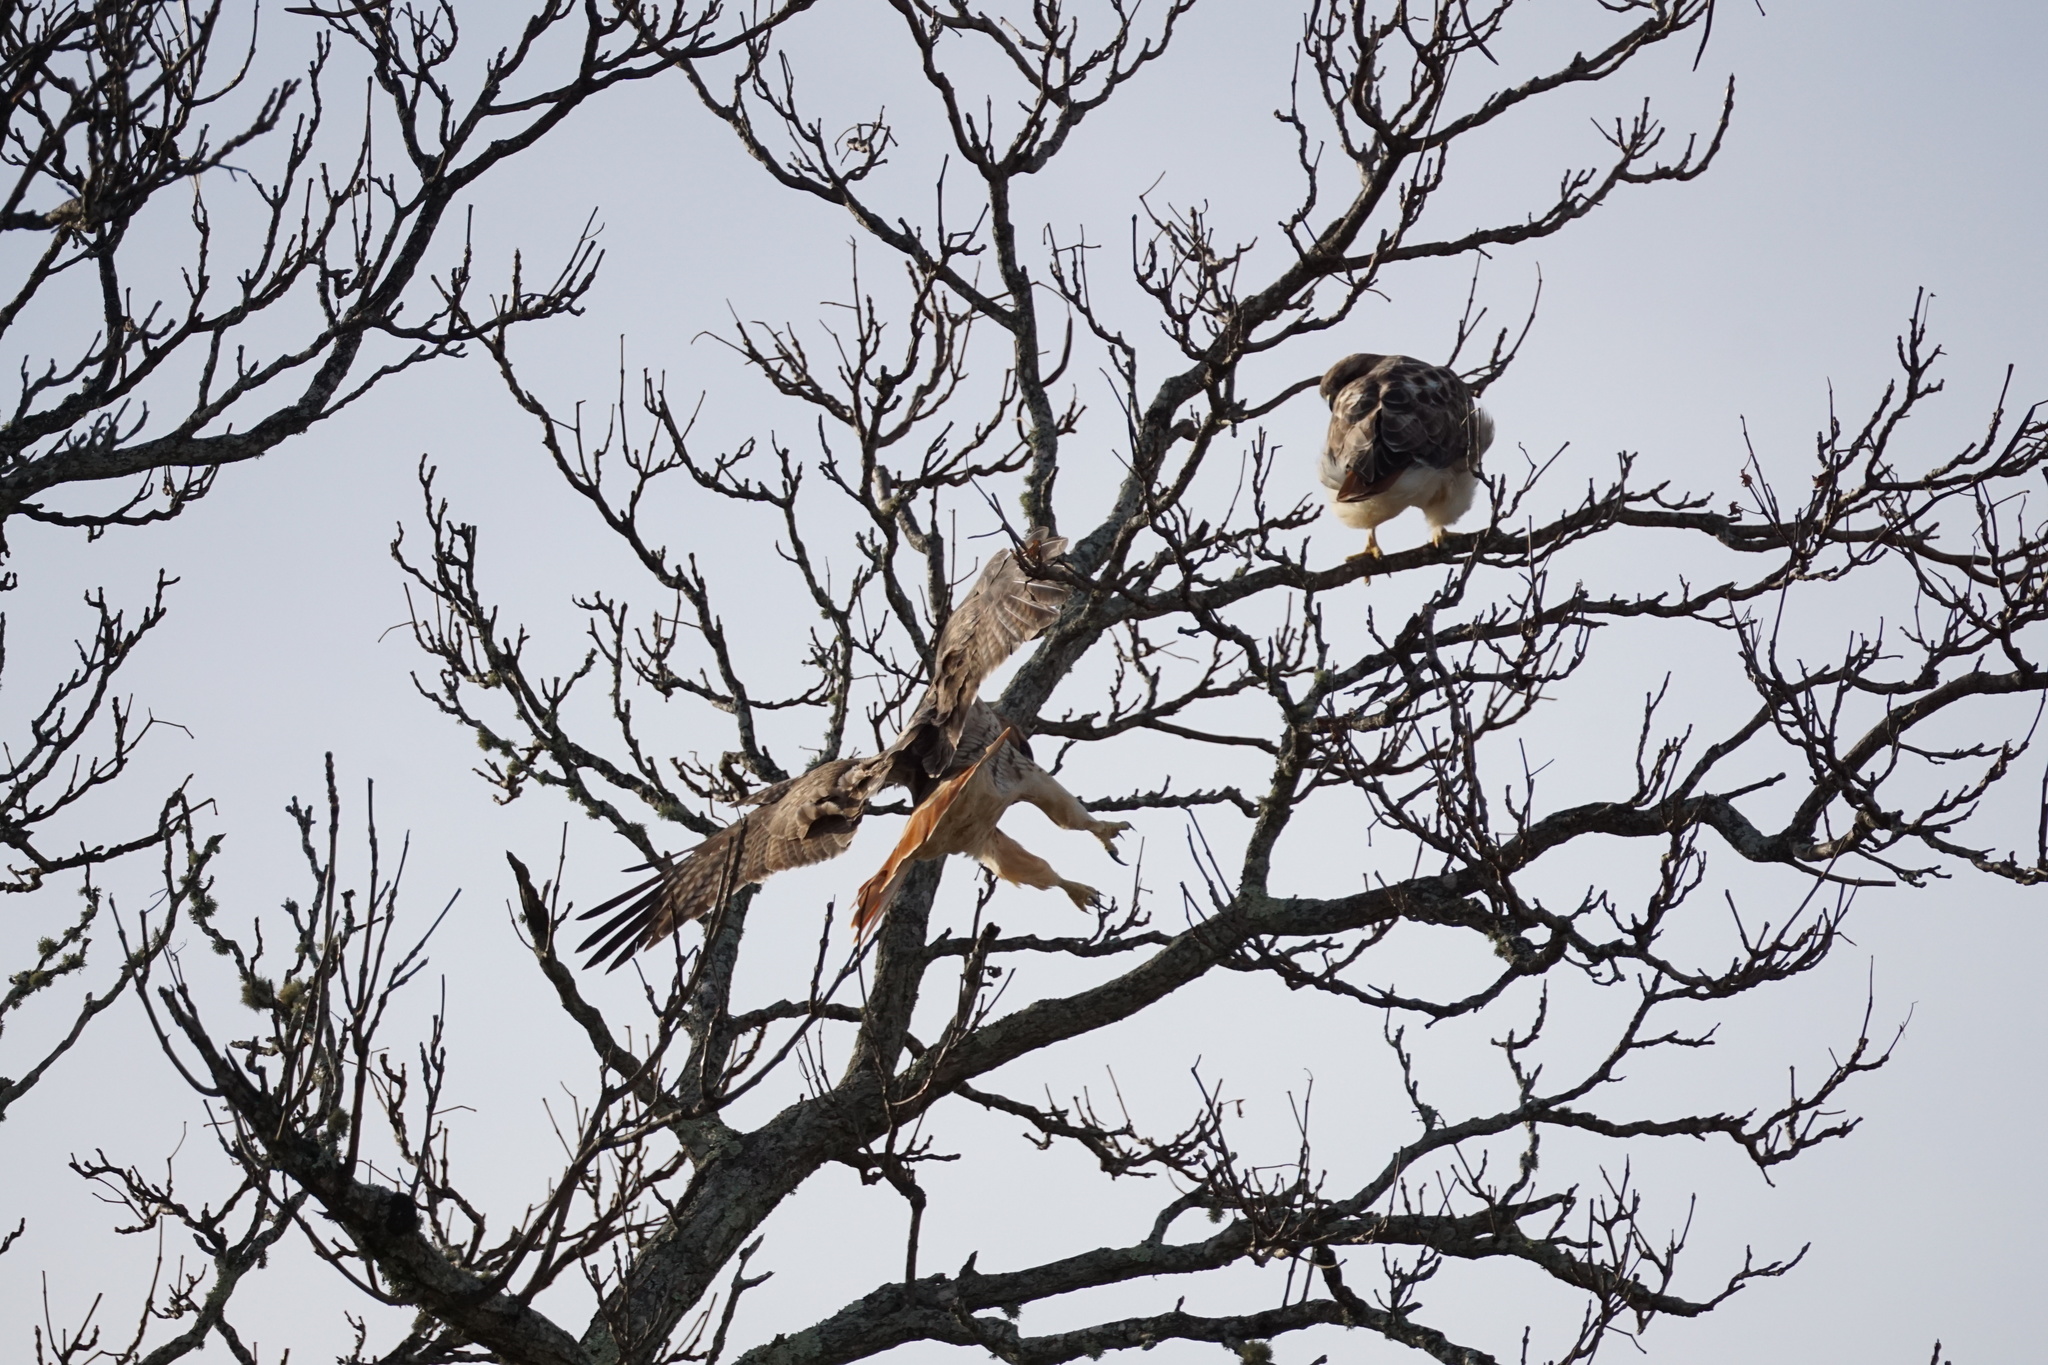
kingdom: Animalia
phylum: Chordata
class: Aves
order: Accipitriformes
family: Accipitridae
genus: Buteo
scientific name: Buteo jamaicensis
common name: Red-tailed hawk
